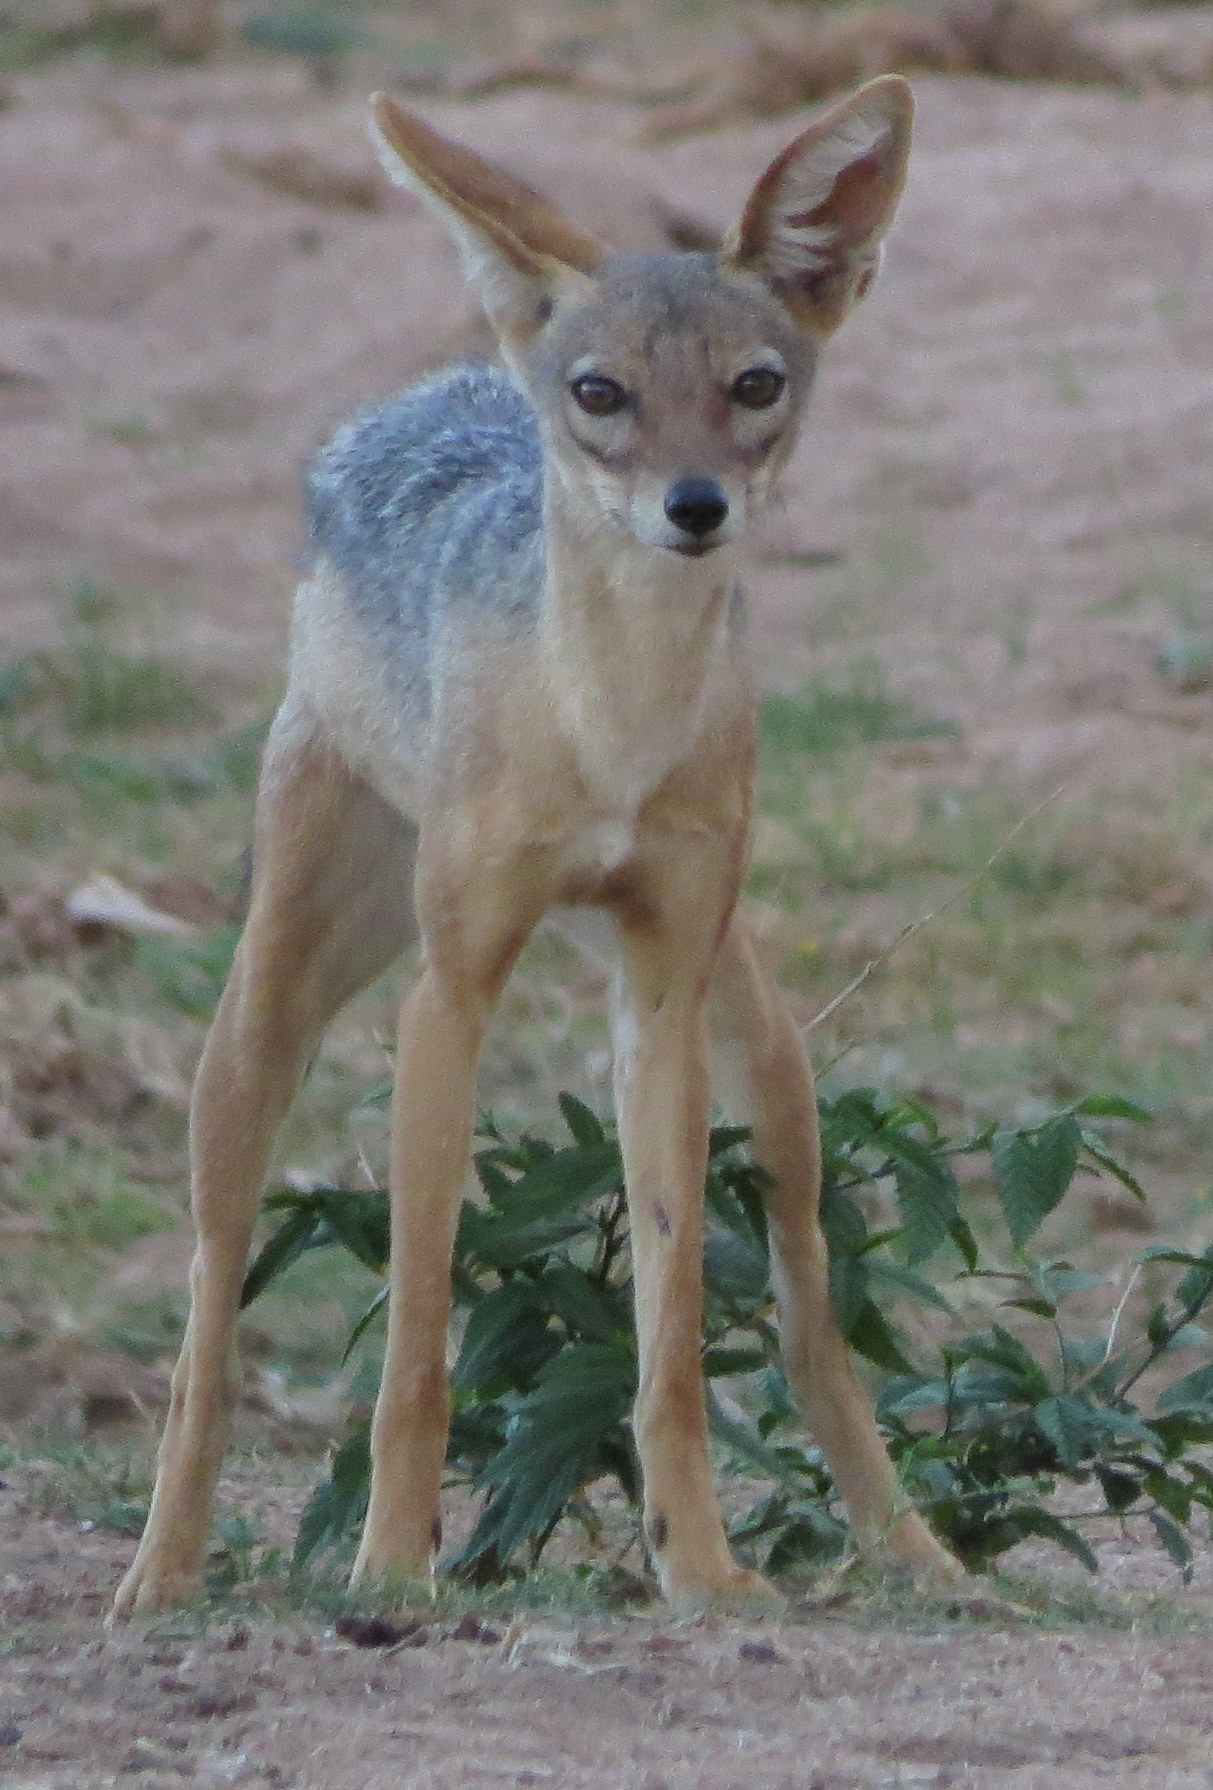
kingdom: Animalia
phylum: Chordata
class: Mammalia
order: Carnivora
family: Canidae
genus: Lupulella
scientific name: Lupulella
